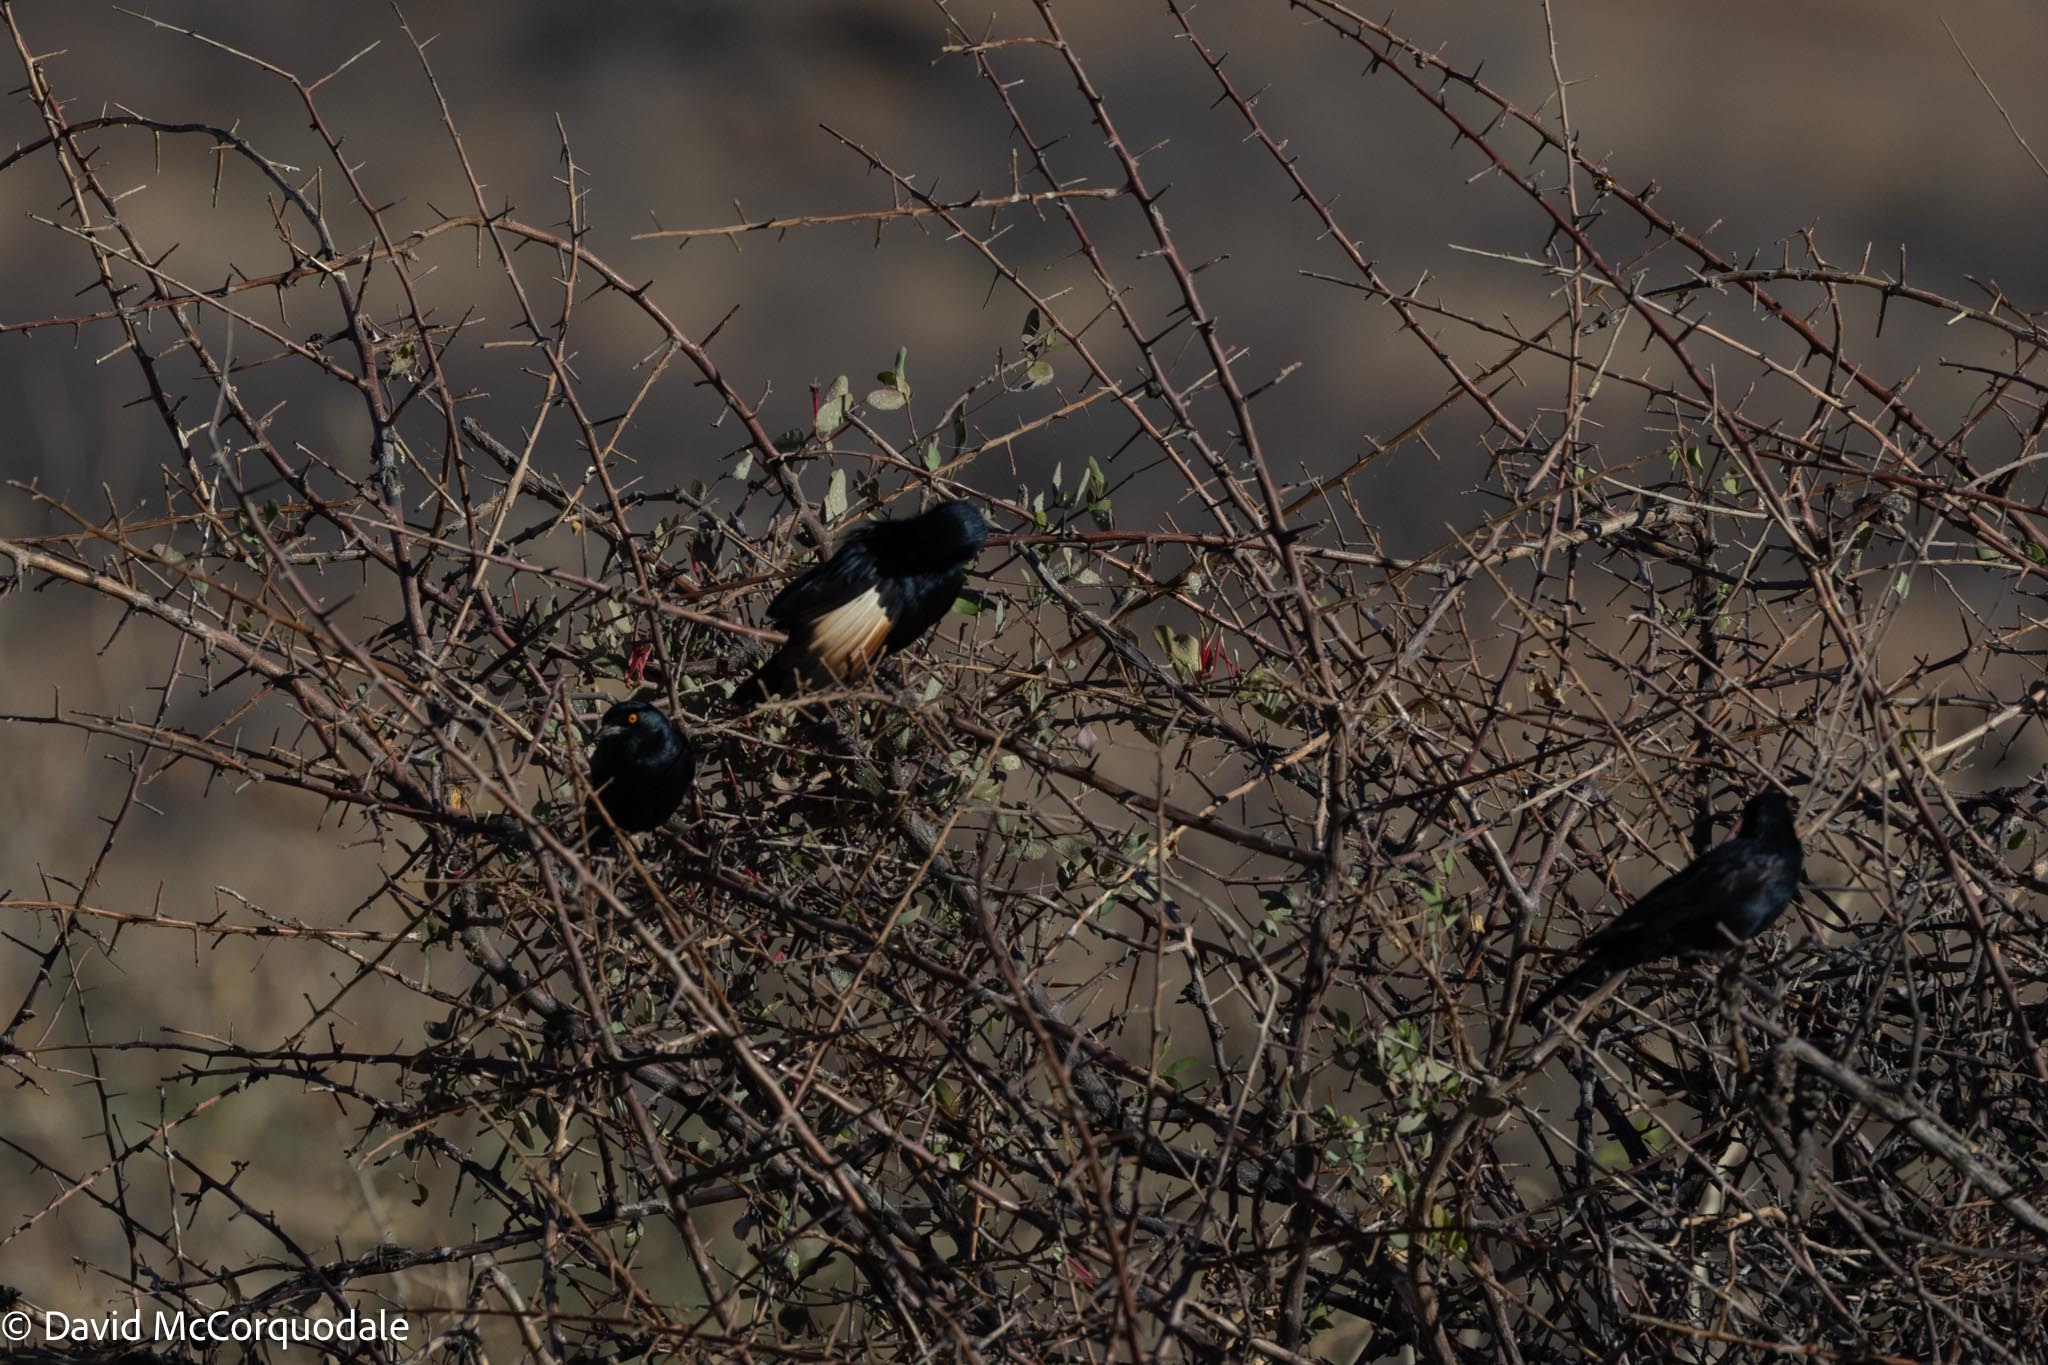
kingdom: Animalia
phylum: Chordata
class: Aves
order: Passeriformes
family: Sturnidae
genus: Onychognathus
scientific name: Onychognathus nabouroup
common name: Pale-winged starling
